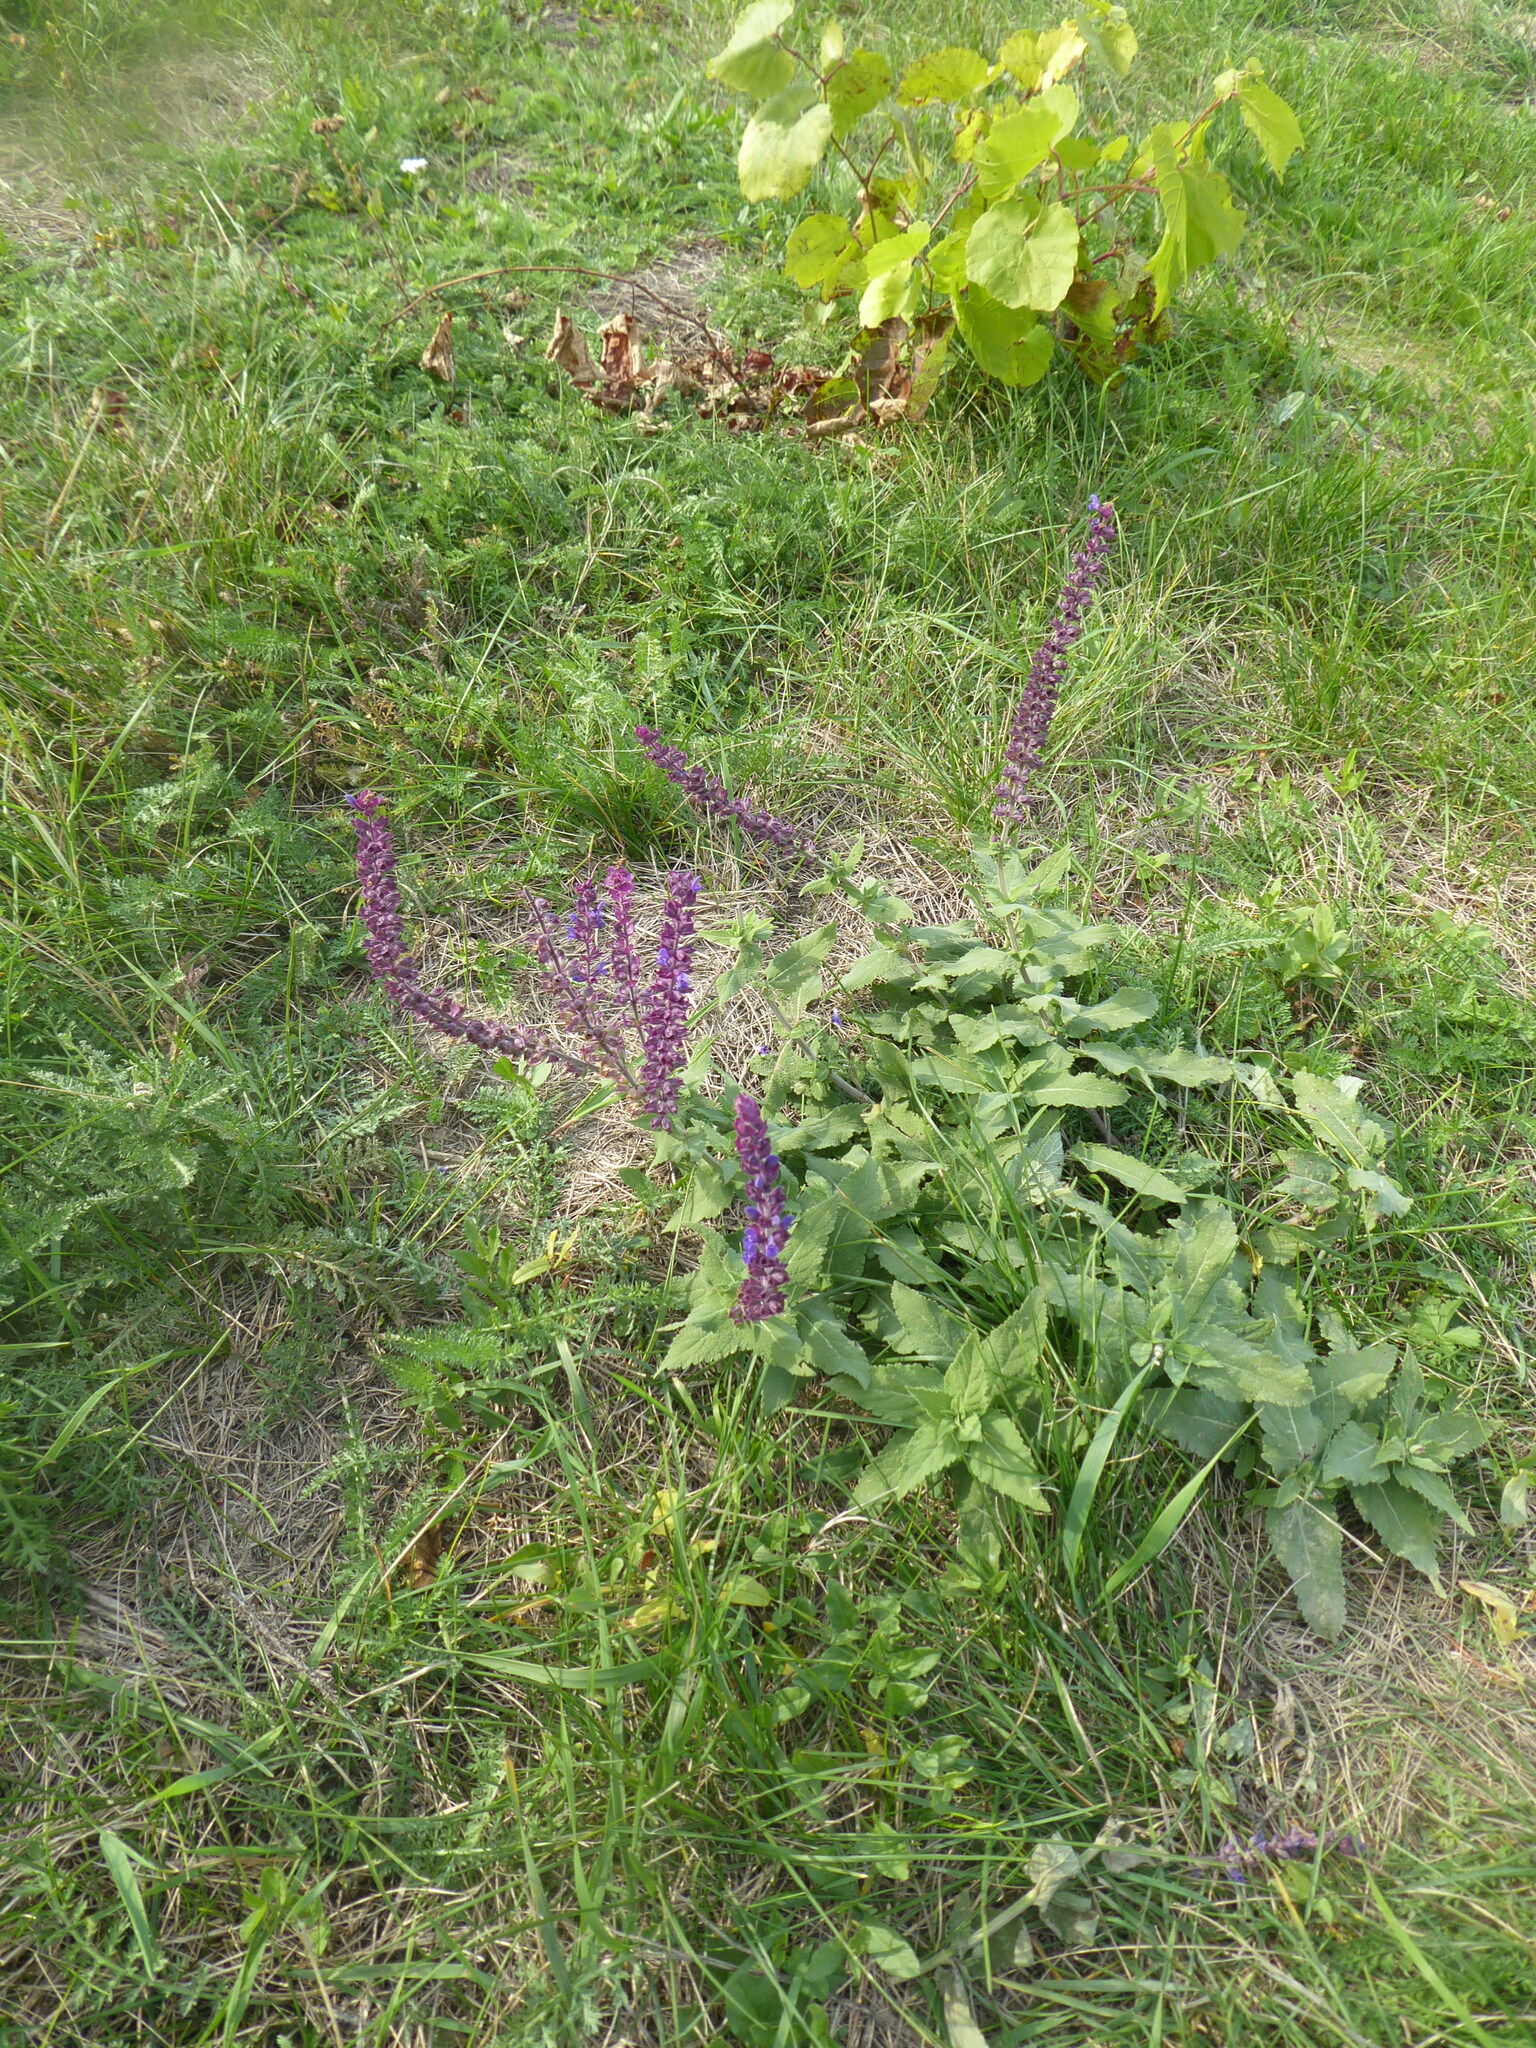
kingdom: Plantae
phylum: Tracheophyta
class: Magnoliopsida
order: Lamiales
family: Lamiaceae
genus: Salvia
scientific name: Salvia nemorosa
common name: Balkan clary
